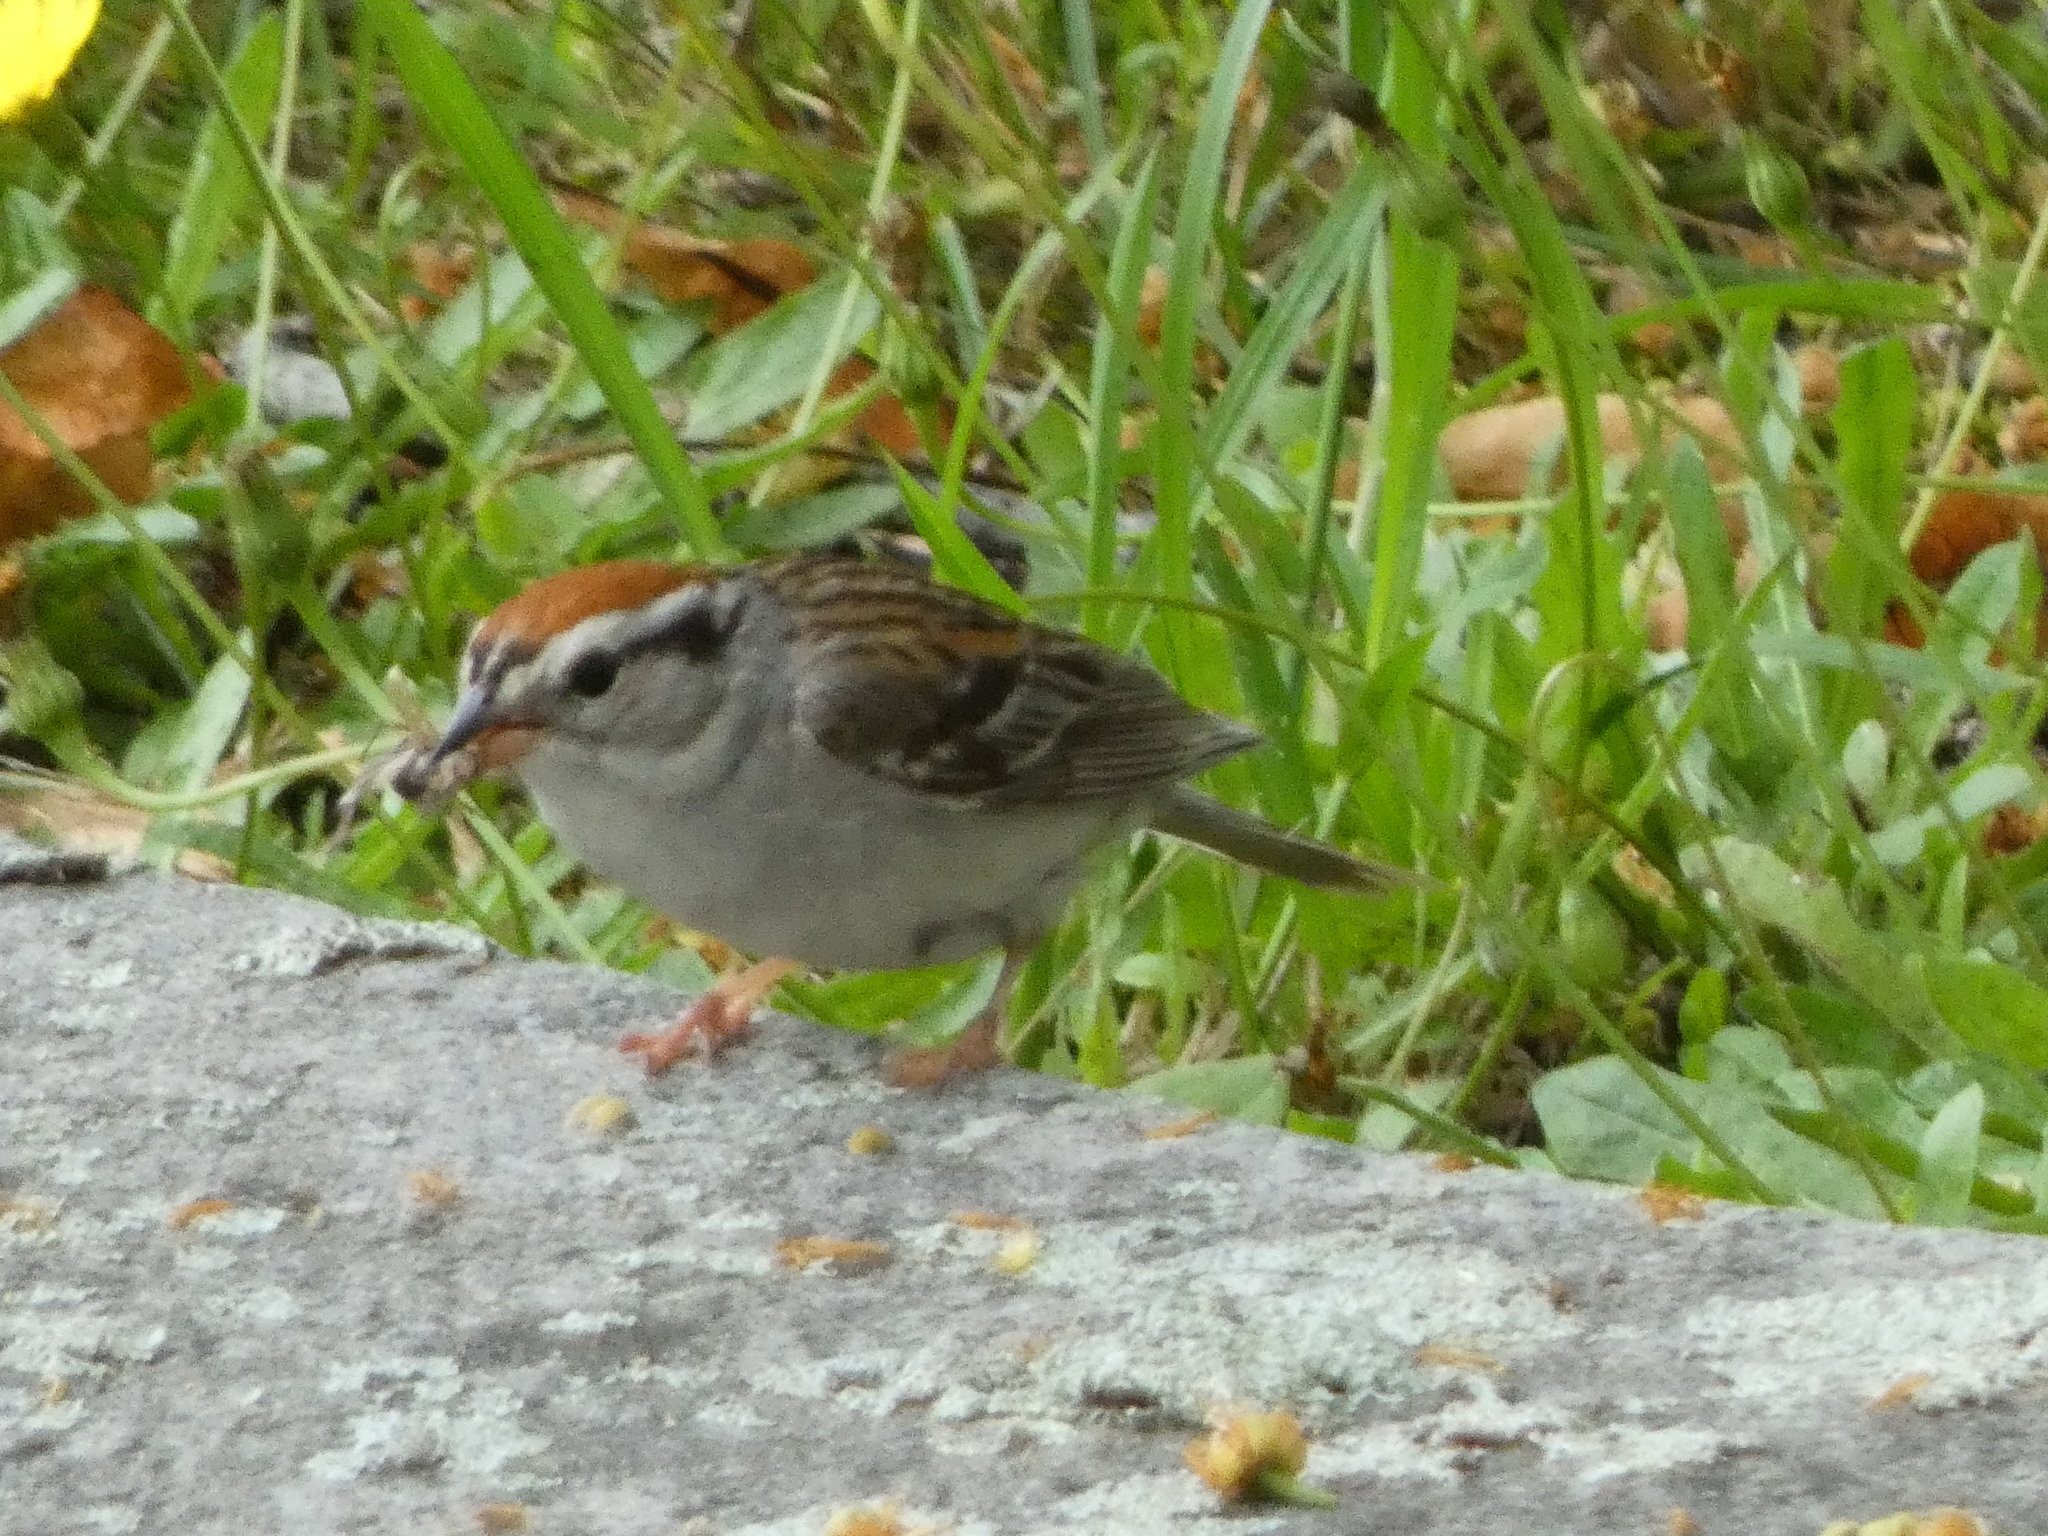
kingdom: Animalia
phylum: Chordata
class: Aves
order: Passeriformes
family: Passerellidae
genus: Spizella
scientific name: Spizella passerina
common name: Chipping sparrow
